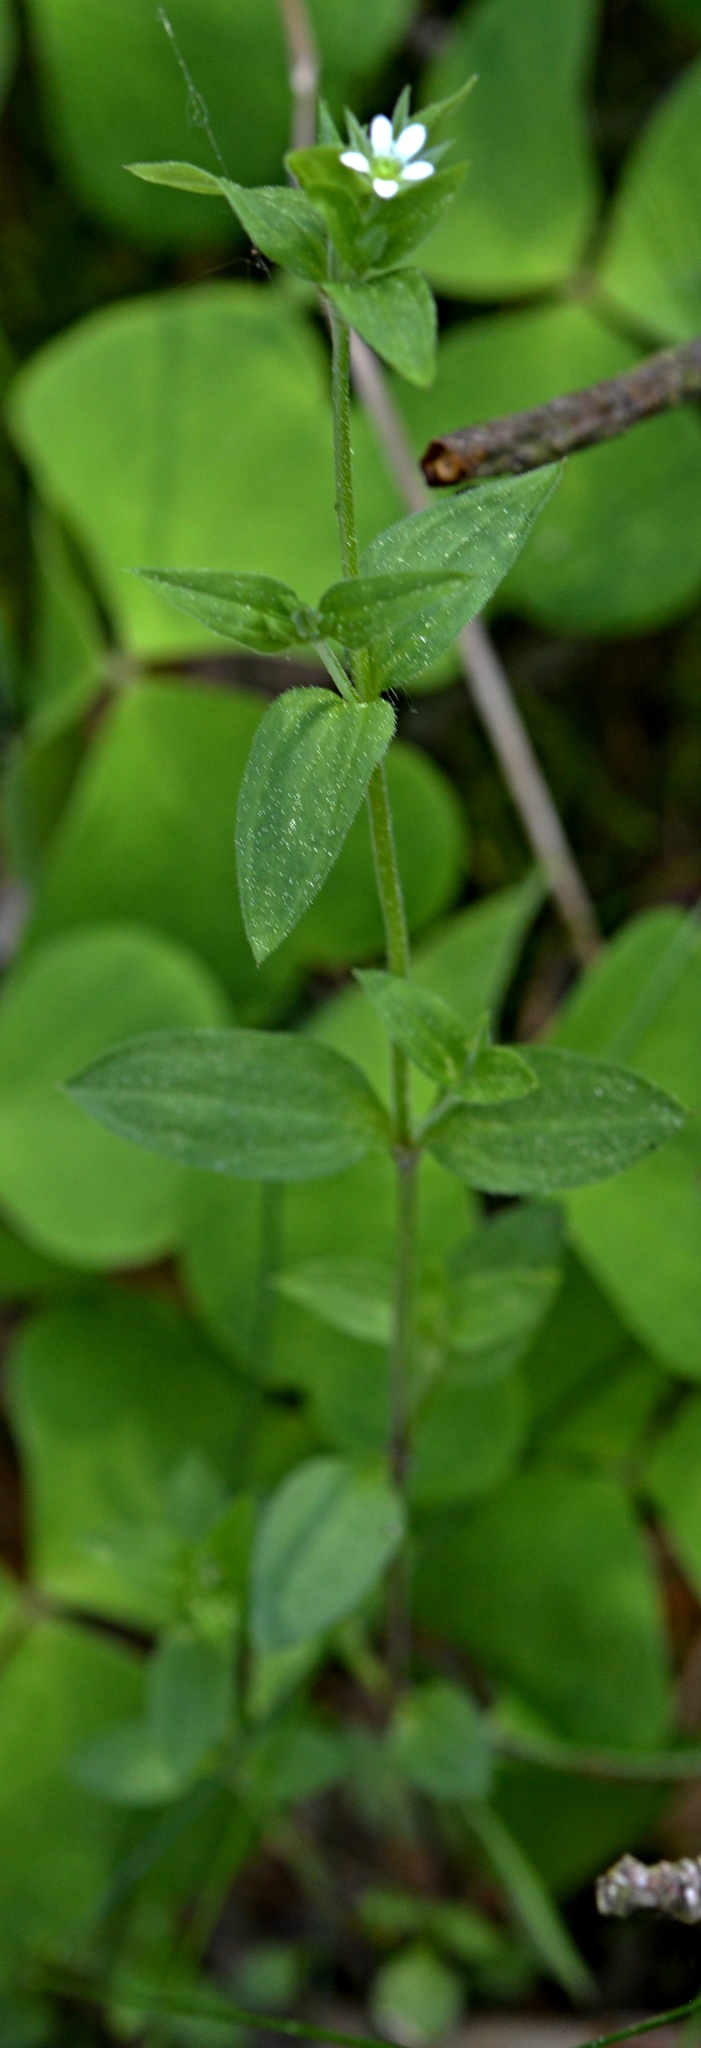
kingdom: Plantae
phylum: Tracheophyta
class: Magnoliopsida
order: Caryophyllales
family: Caryophyllaceae
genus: Moehringia
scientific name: Moehringia trinervia
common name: Three-nerved sandwort
